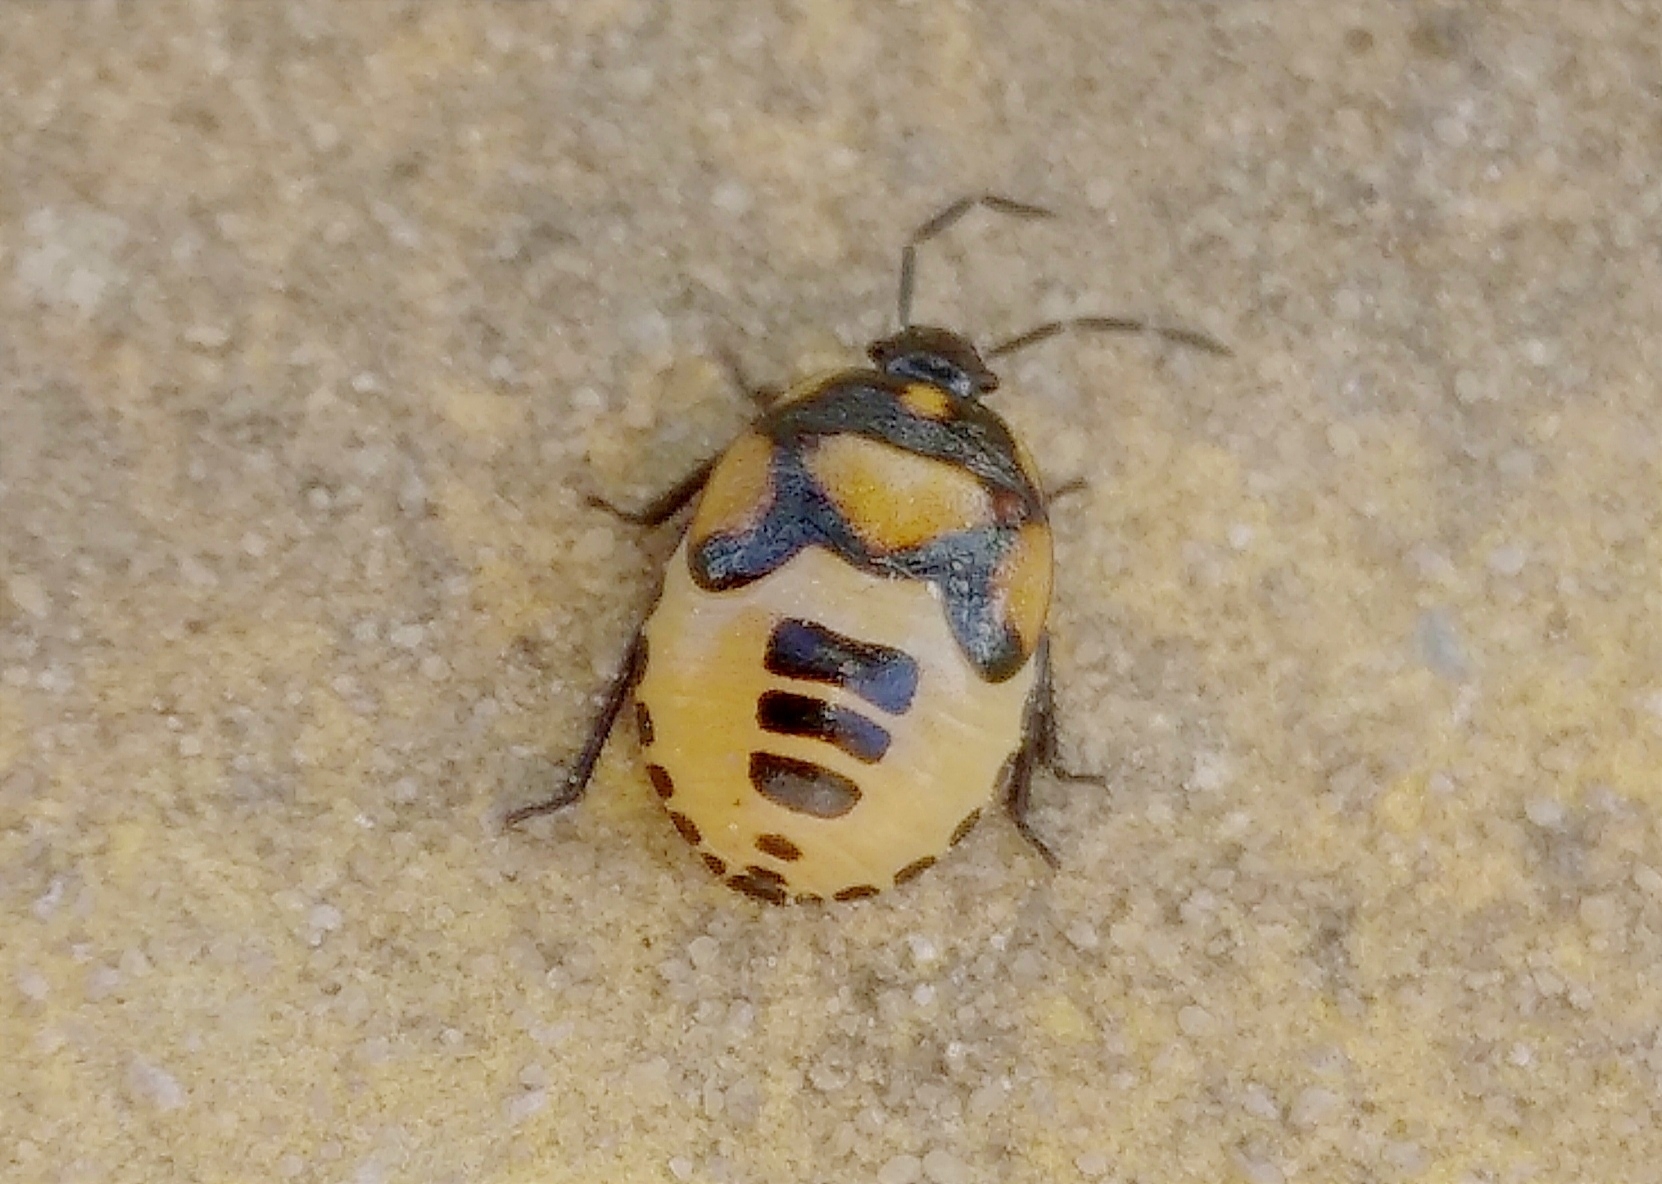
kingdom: Animalia
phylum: Arthropoda
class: Insecta
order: Hemiptera
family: Cydnidae
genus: Tritomegas
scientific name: Tritomegas bicolor
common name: Pied shieldbug
